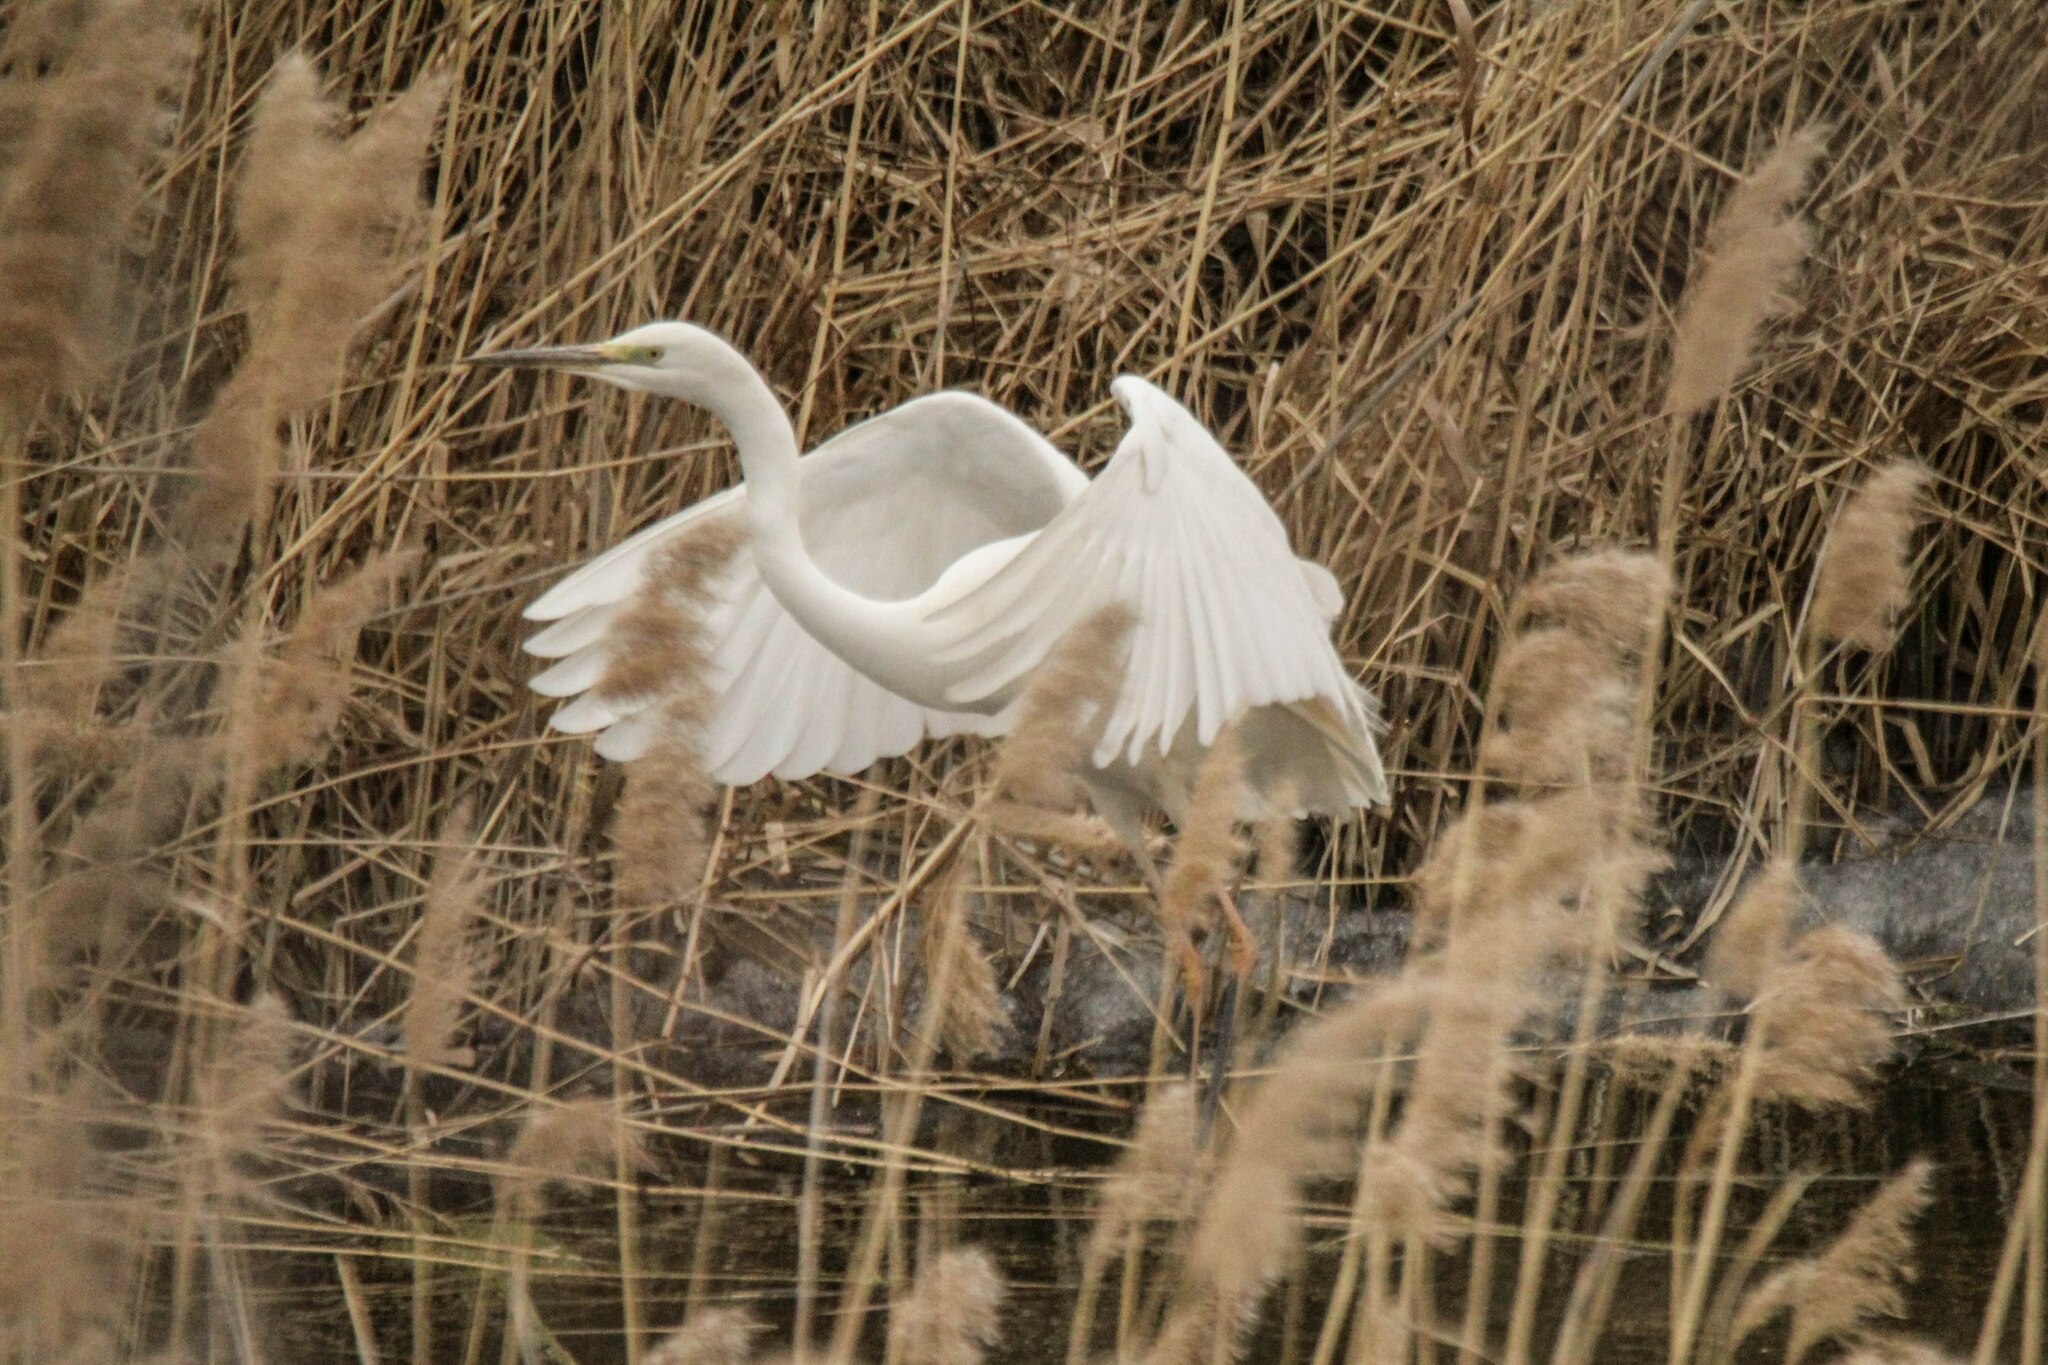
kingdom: Animalia
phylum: Chordata
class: Aves
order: Pelecaniformes
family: Ardeidae
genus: Ardea
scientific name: Ardea alba
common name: Great egret
